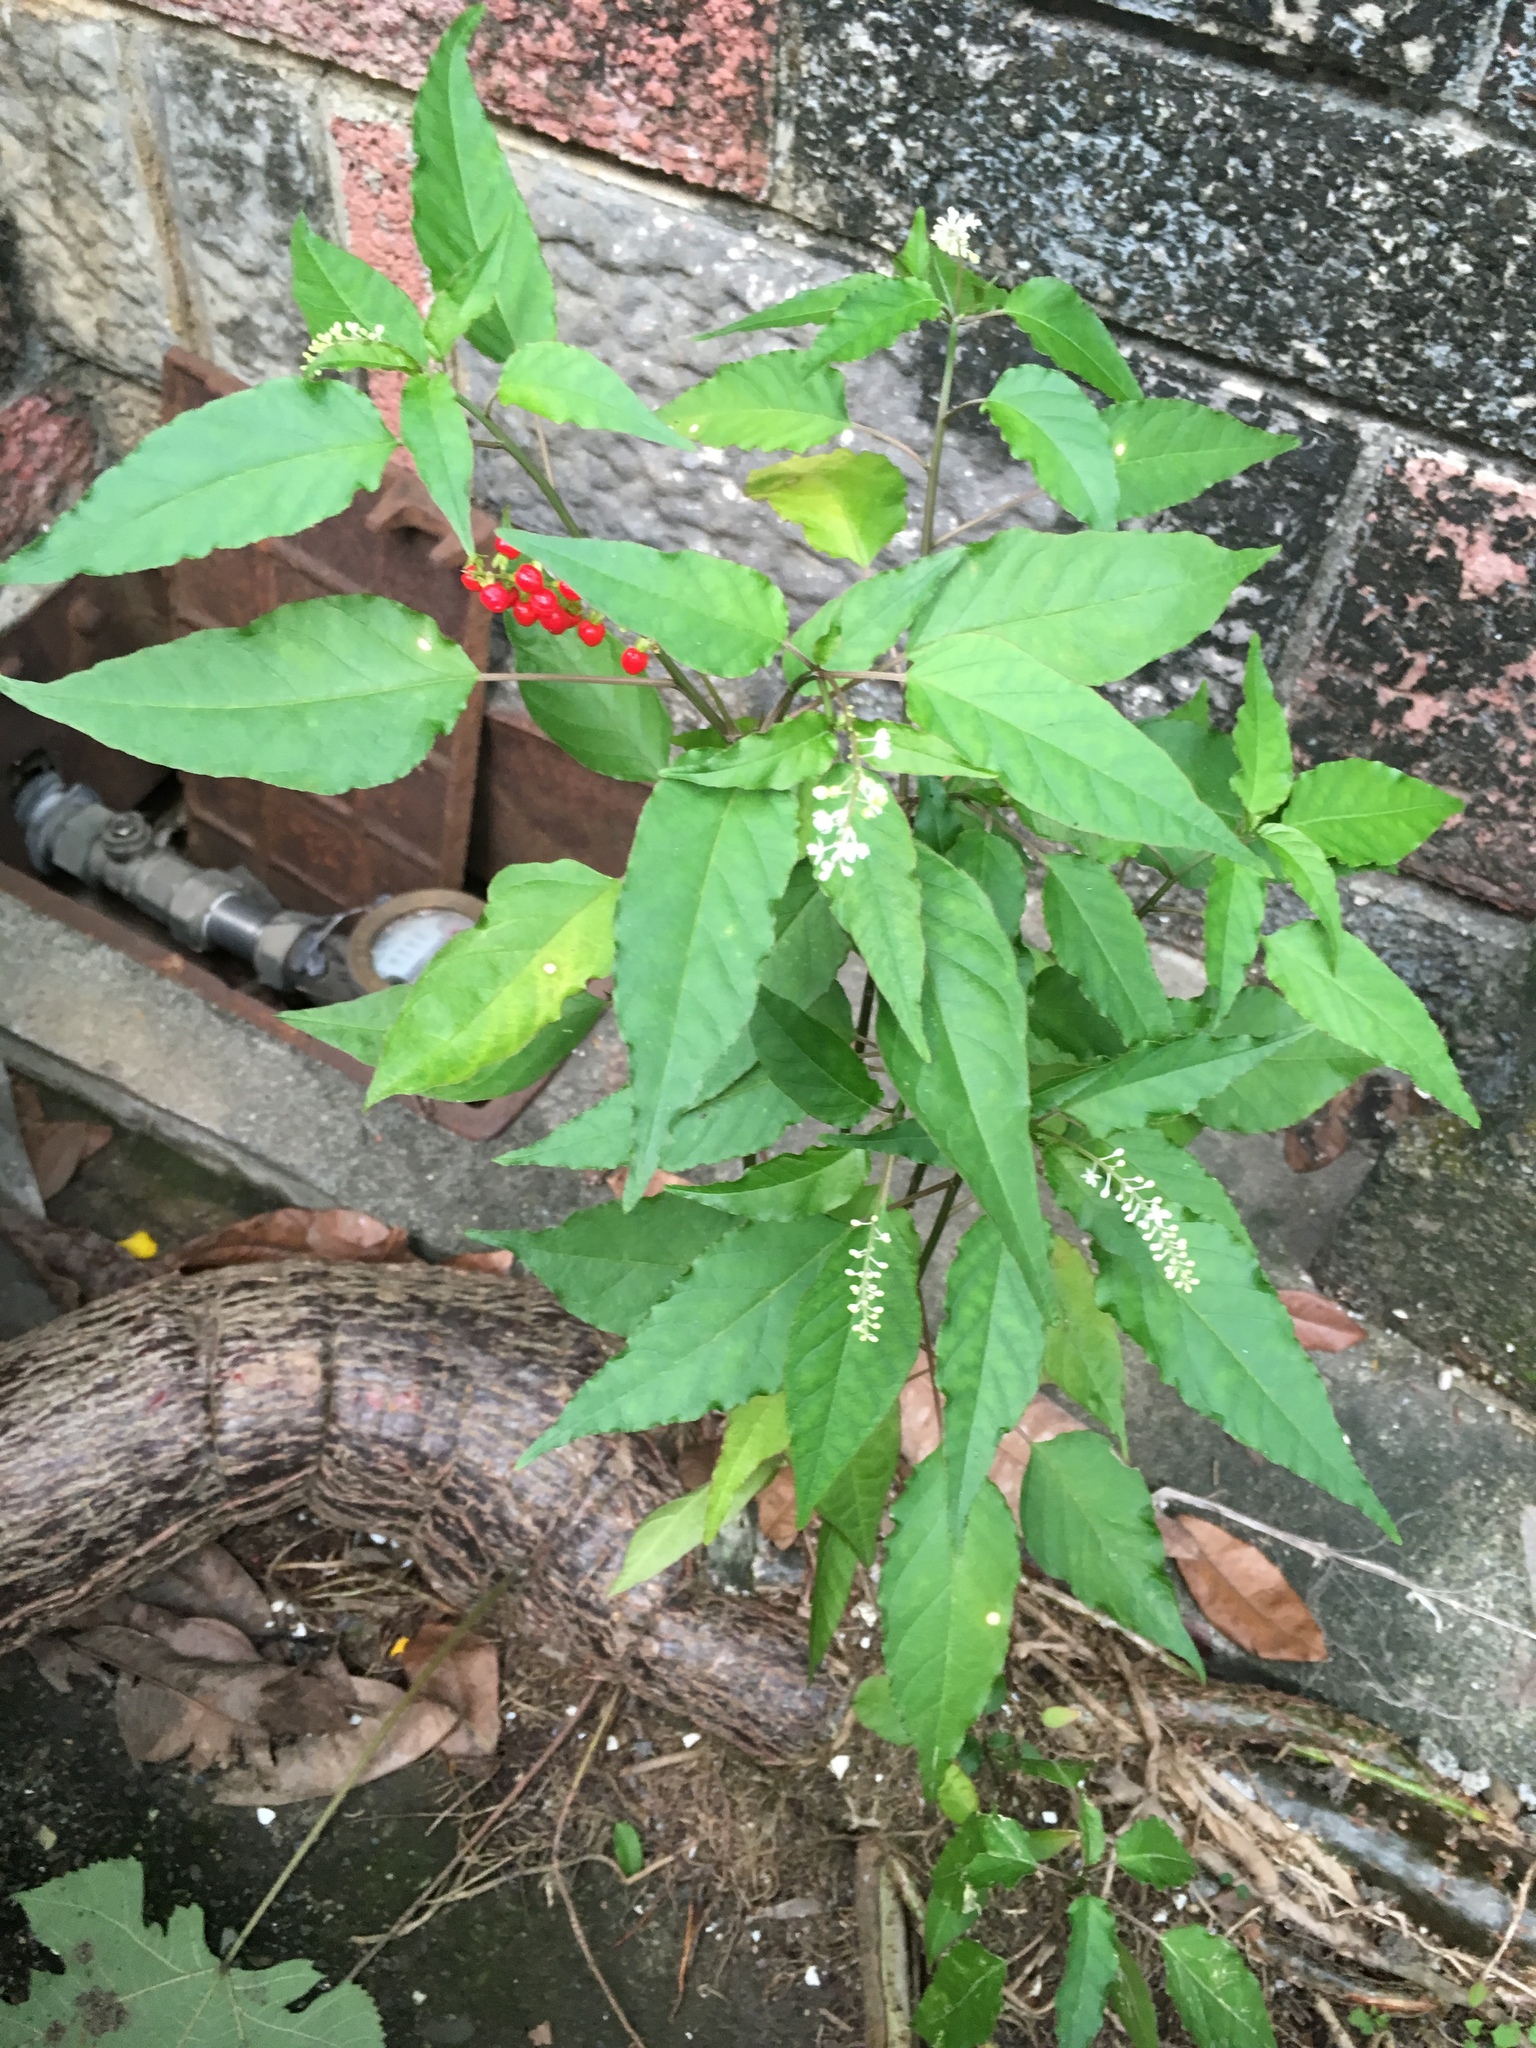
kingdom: Plantae
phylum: Tracheophyta
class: Magnoliopsida
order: Caryophyllales
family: Phytolaccaceae
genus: Rivina
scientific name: Rivina humilis
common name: Rougeplant
